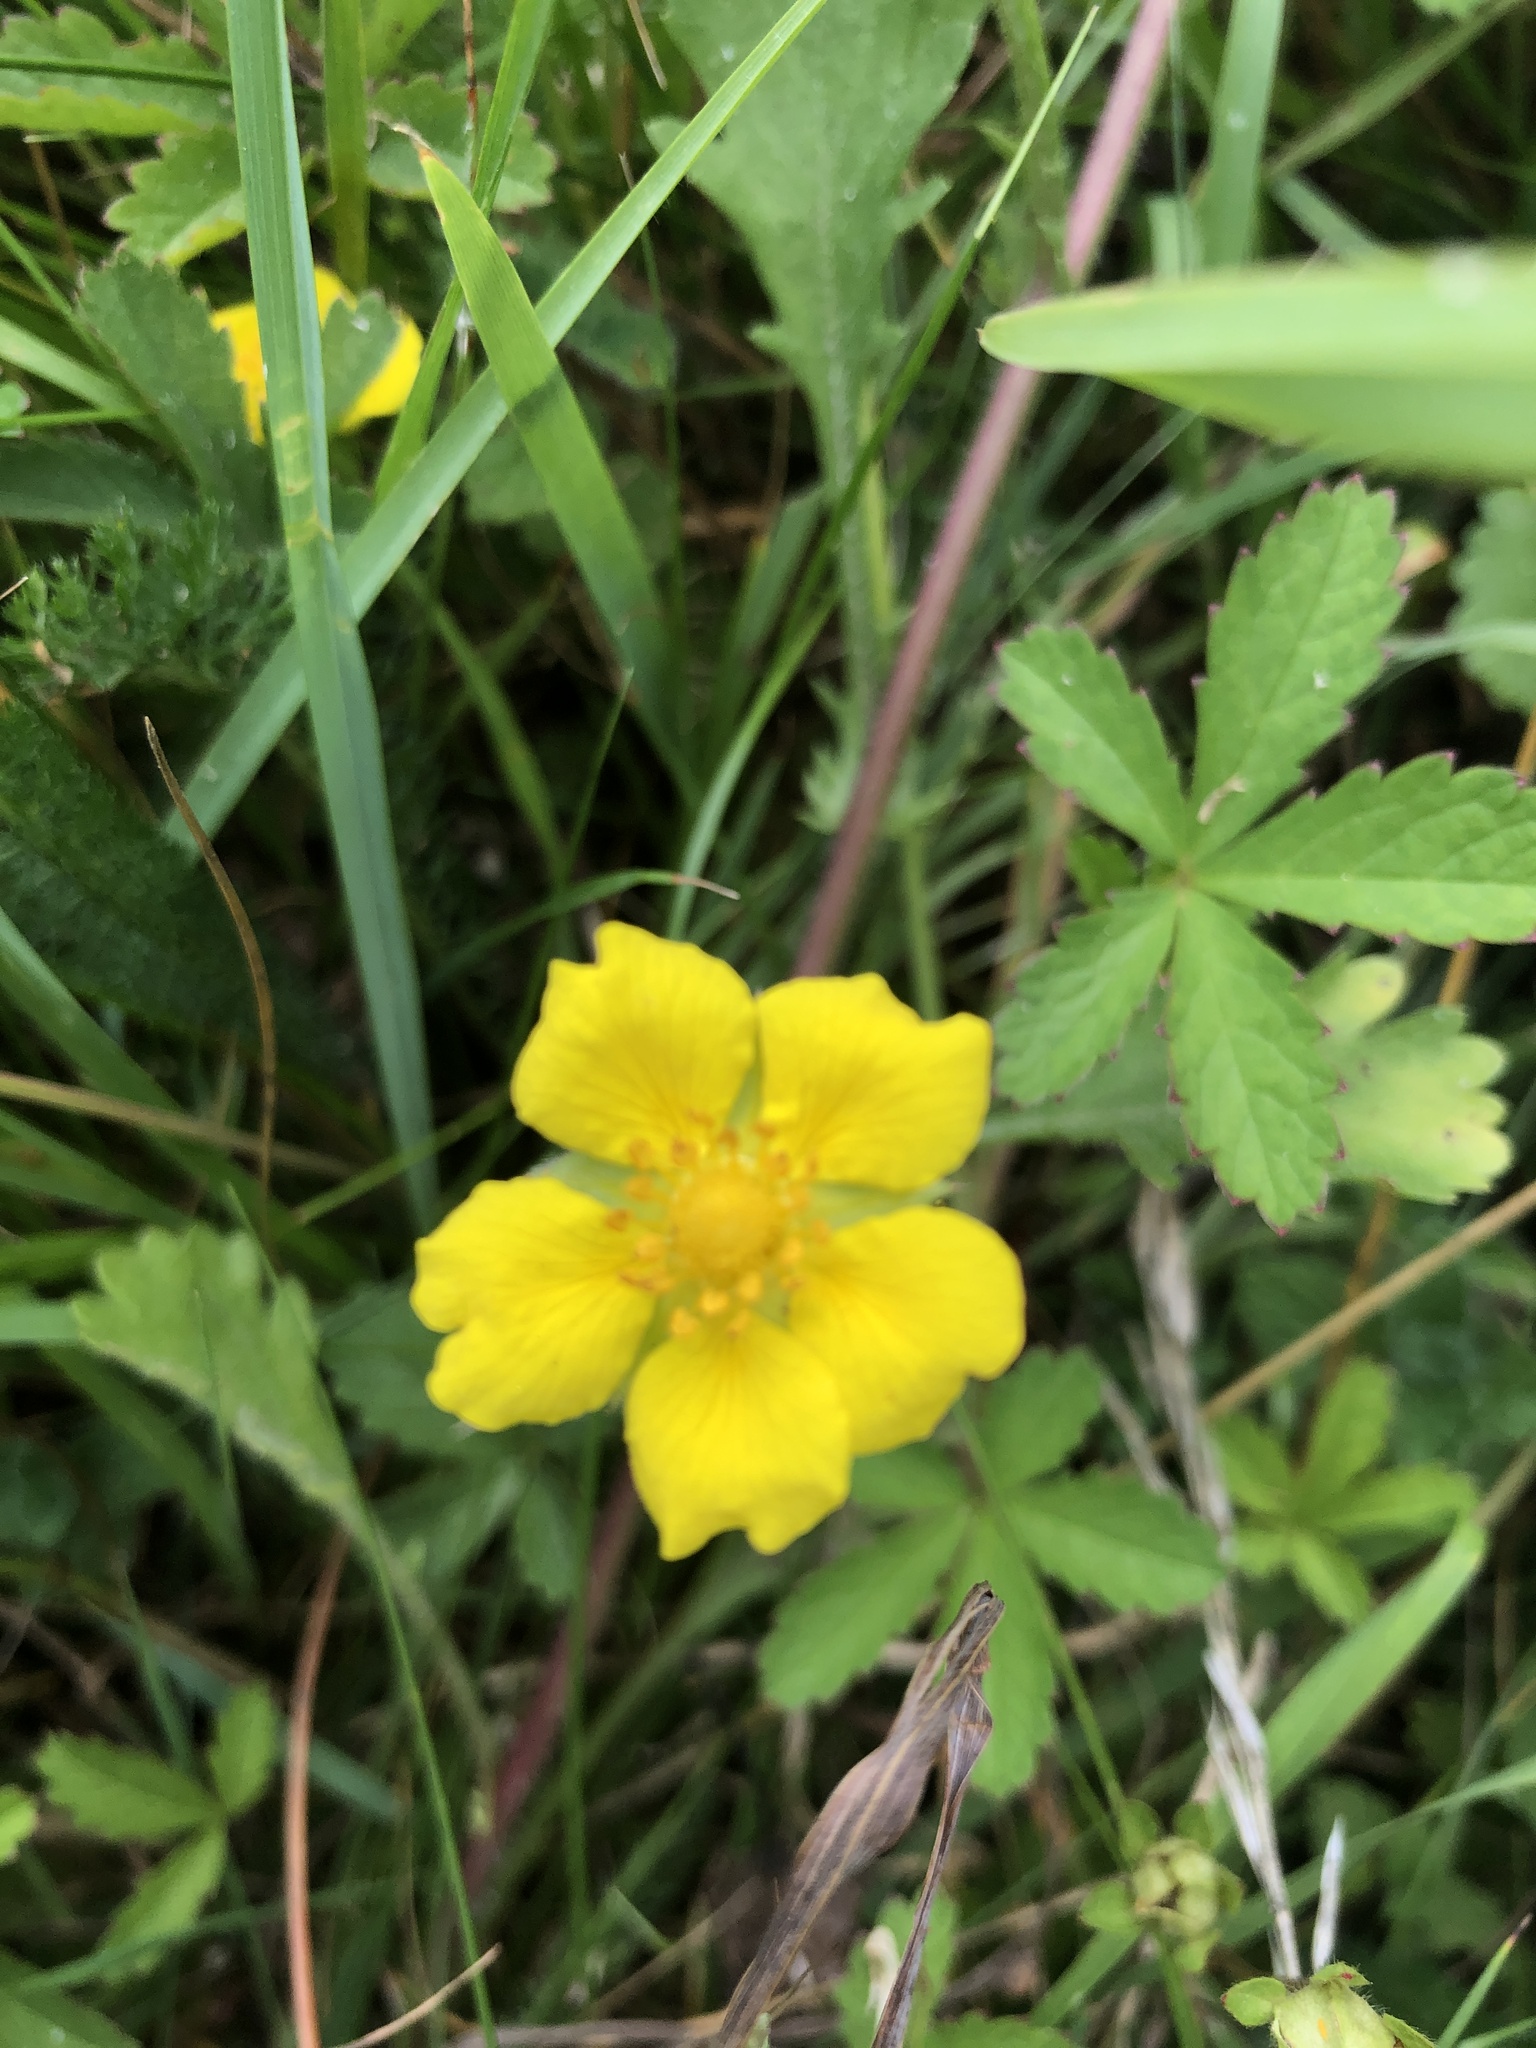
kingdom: Plantae
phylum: Tracheophyta
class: Magnoliopsida
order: Rosales
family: Rosaceae
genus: Potentilla
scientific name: Potentilla reptans
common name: Creeping cinquefoil
